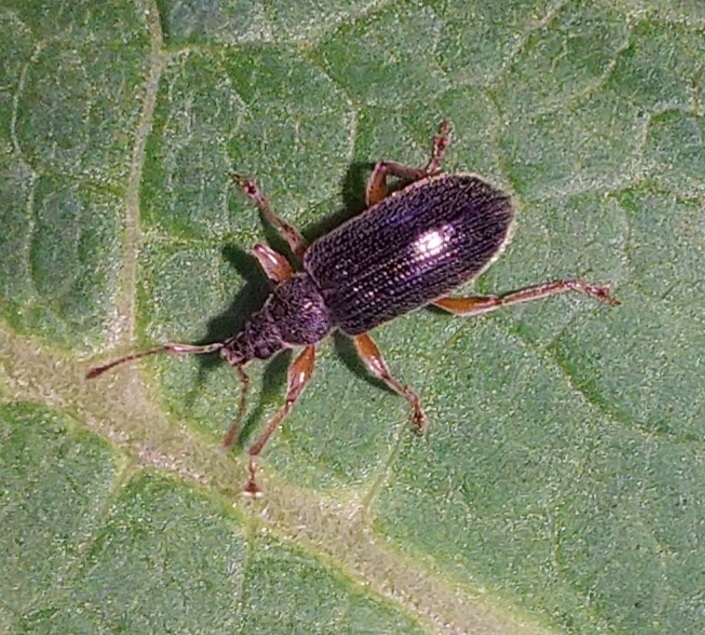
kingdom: Animalia
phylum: Arthropoda
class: Insecta
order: Coleoptera
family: Curculionidae
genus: Phyllobius
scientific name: Phyllobius oblongus
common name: Brown leaf weevil
